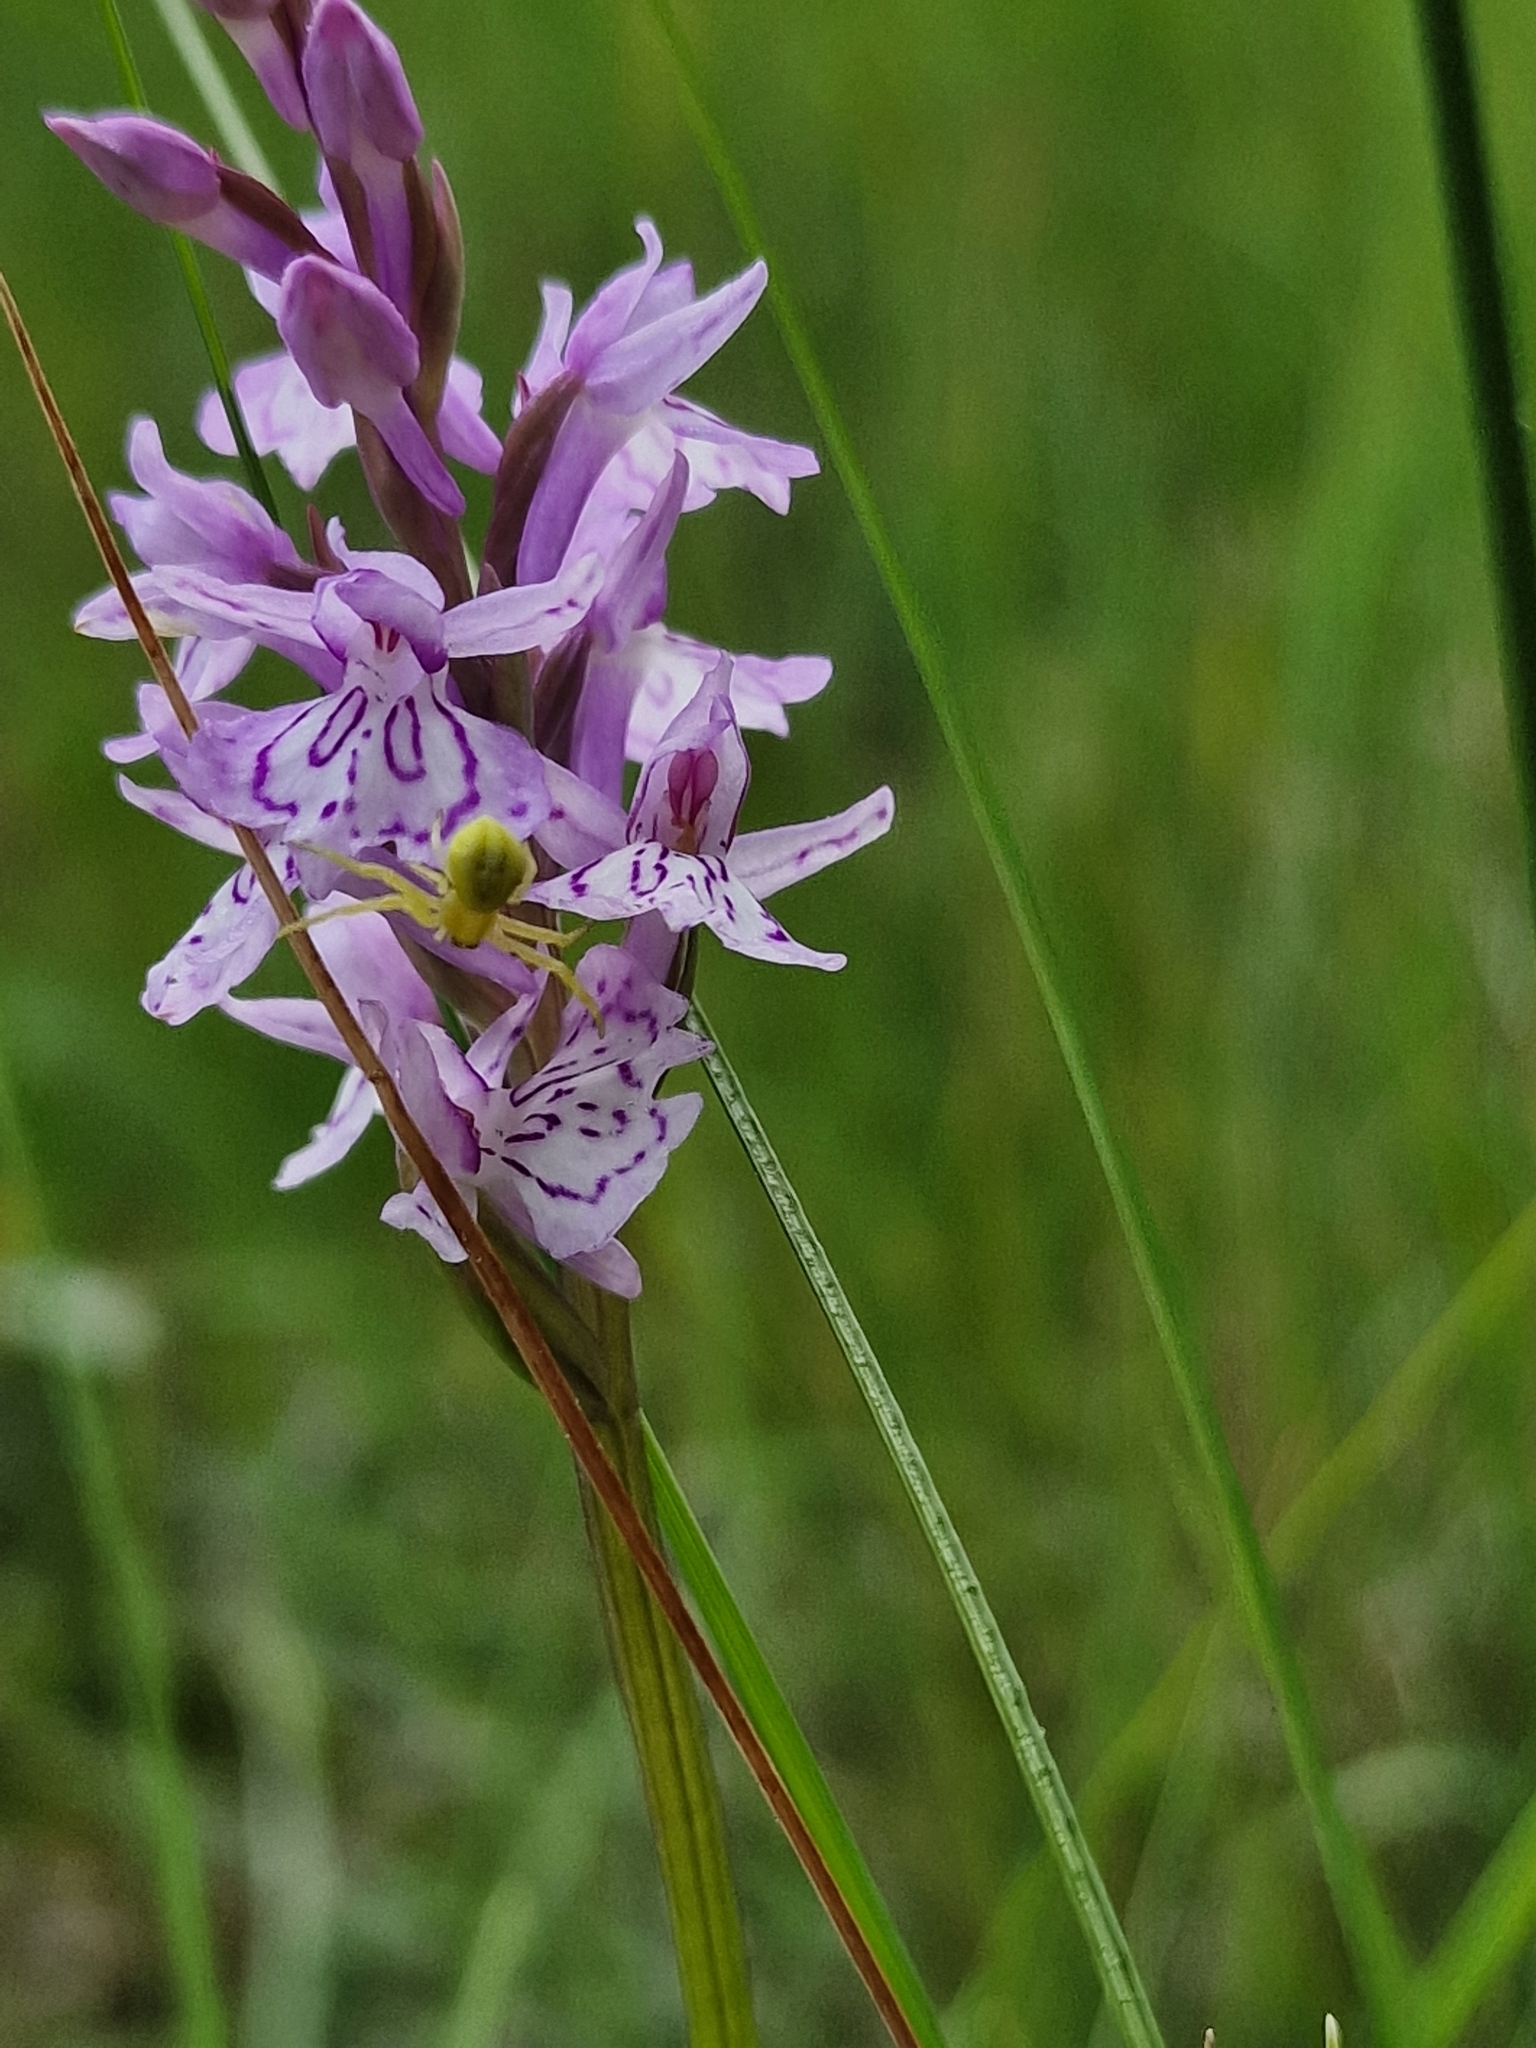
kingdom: Animalia
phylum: Arthropoda
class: Arachnida
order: Araneae
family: Thomisidae
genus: Misumena
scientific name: Misumena vatia
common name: Goldenrod crab spider
